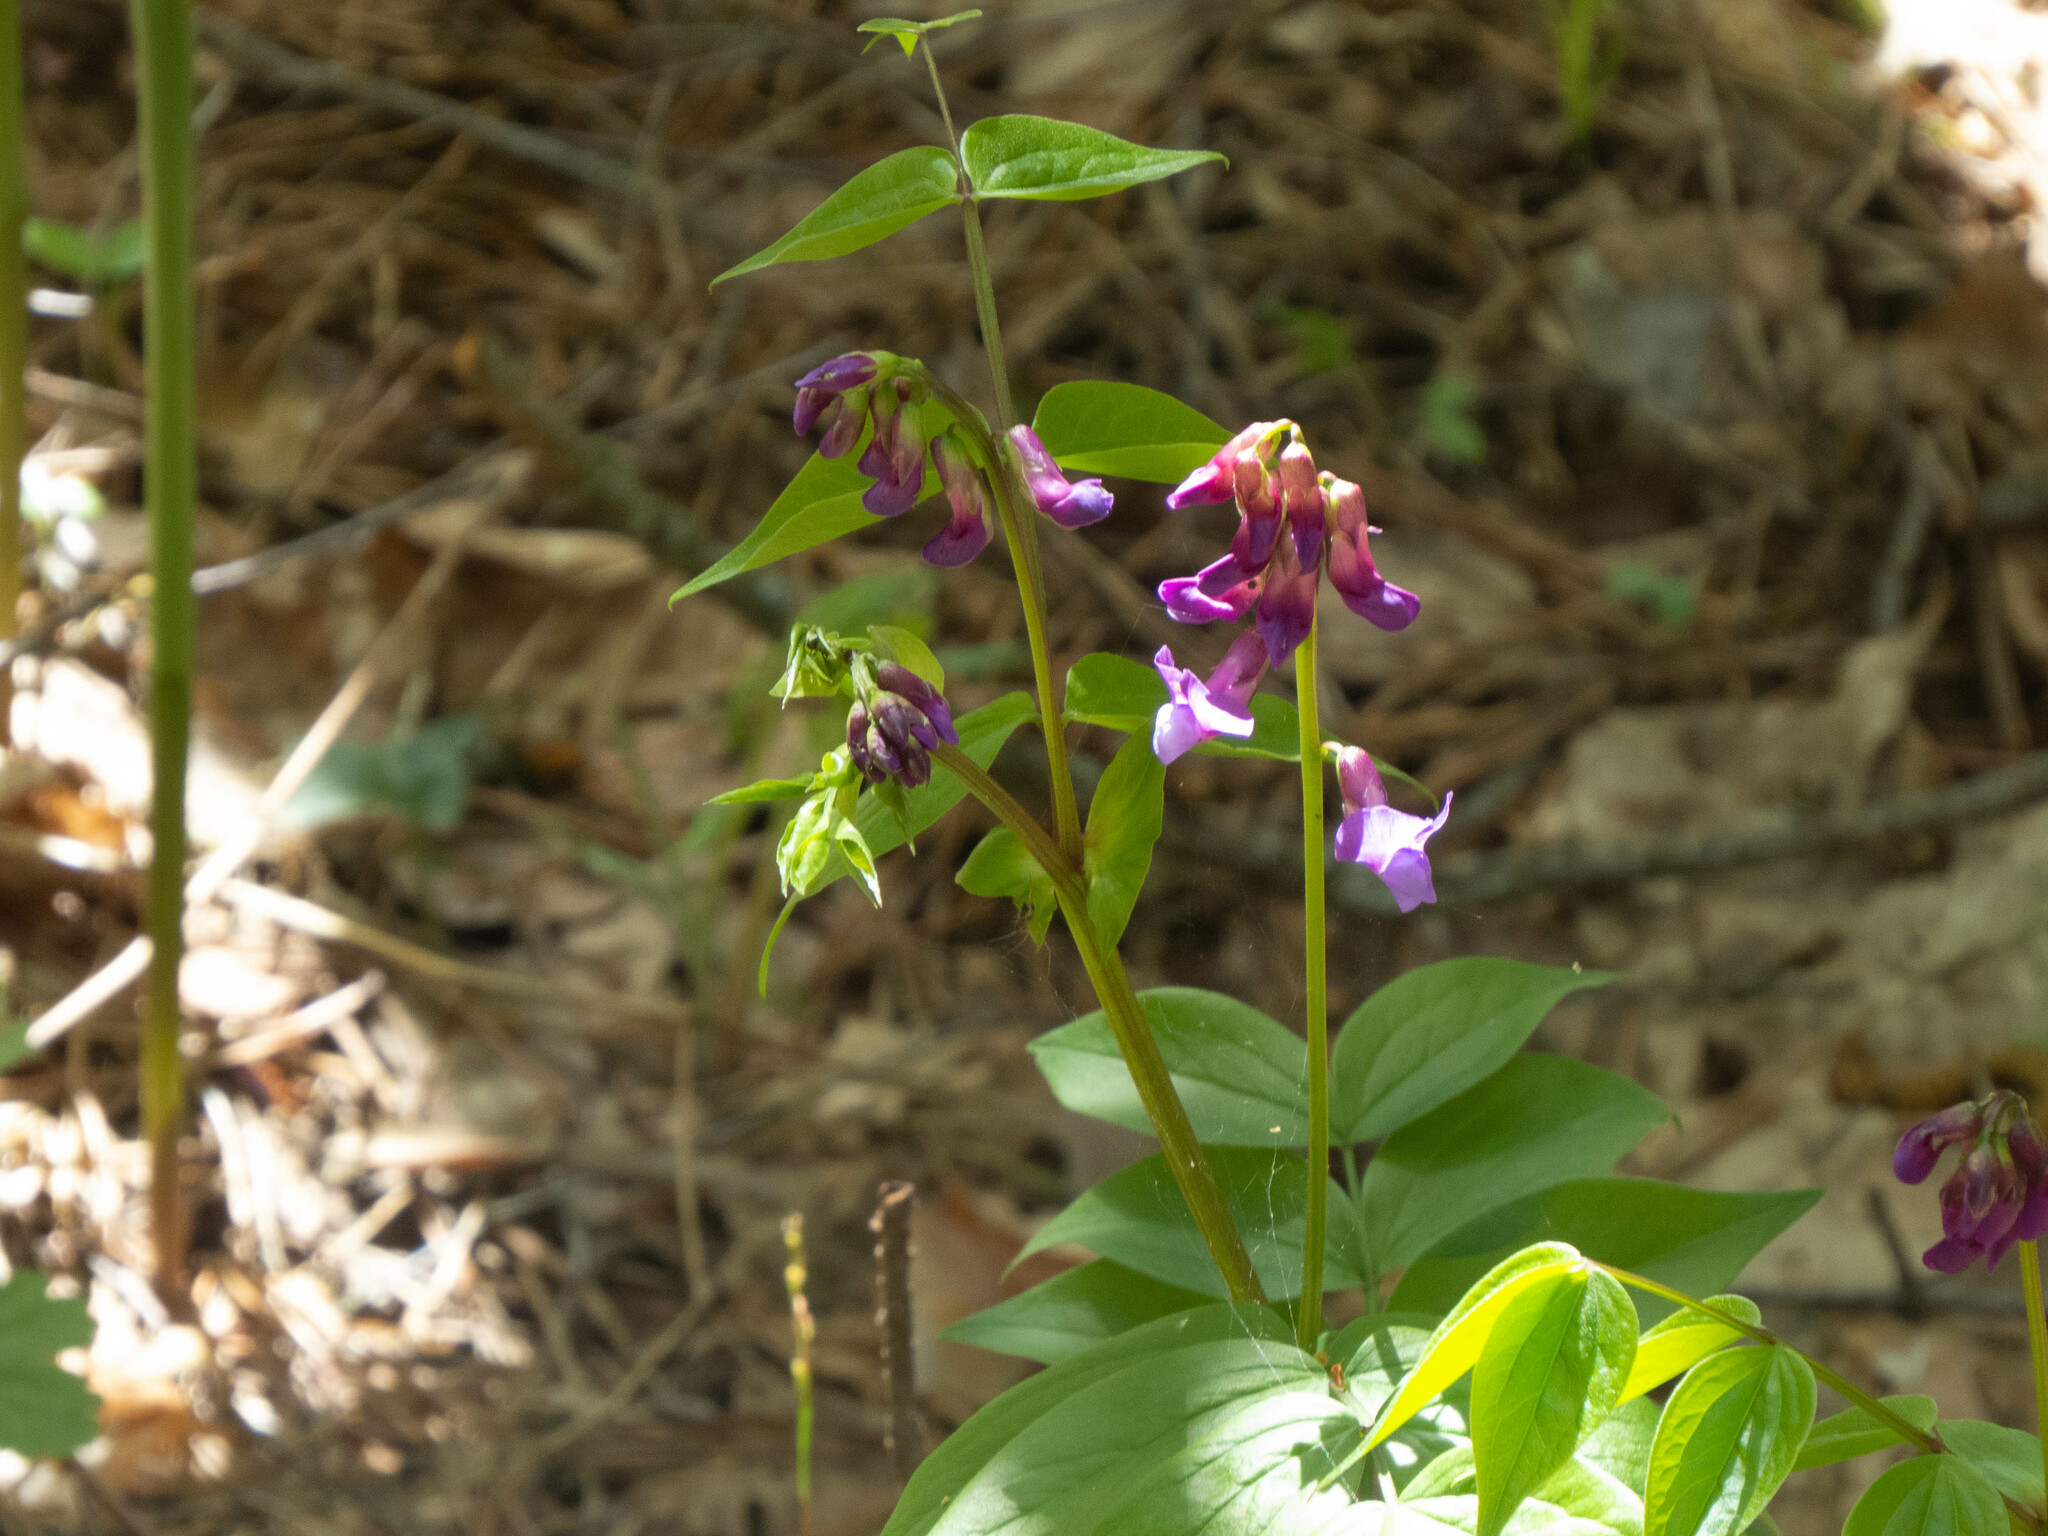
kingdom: Plantae
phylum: Tracheophyta
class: Magnoliopsida
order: Fabales
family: Fabaceae
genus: Lathyrus
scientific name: Lathyrus vernus
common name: Spring pea
